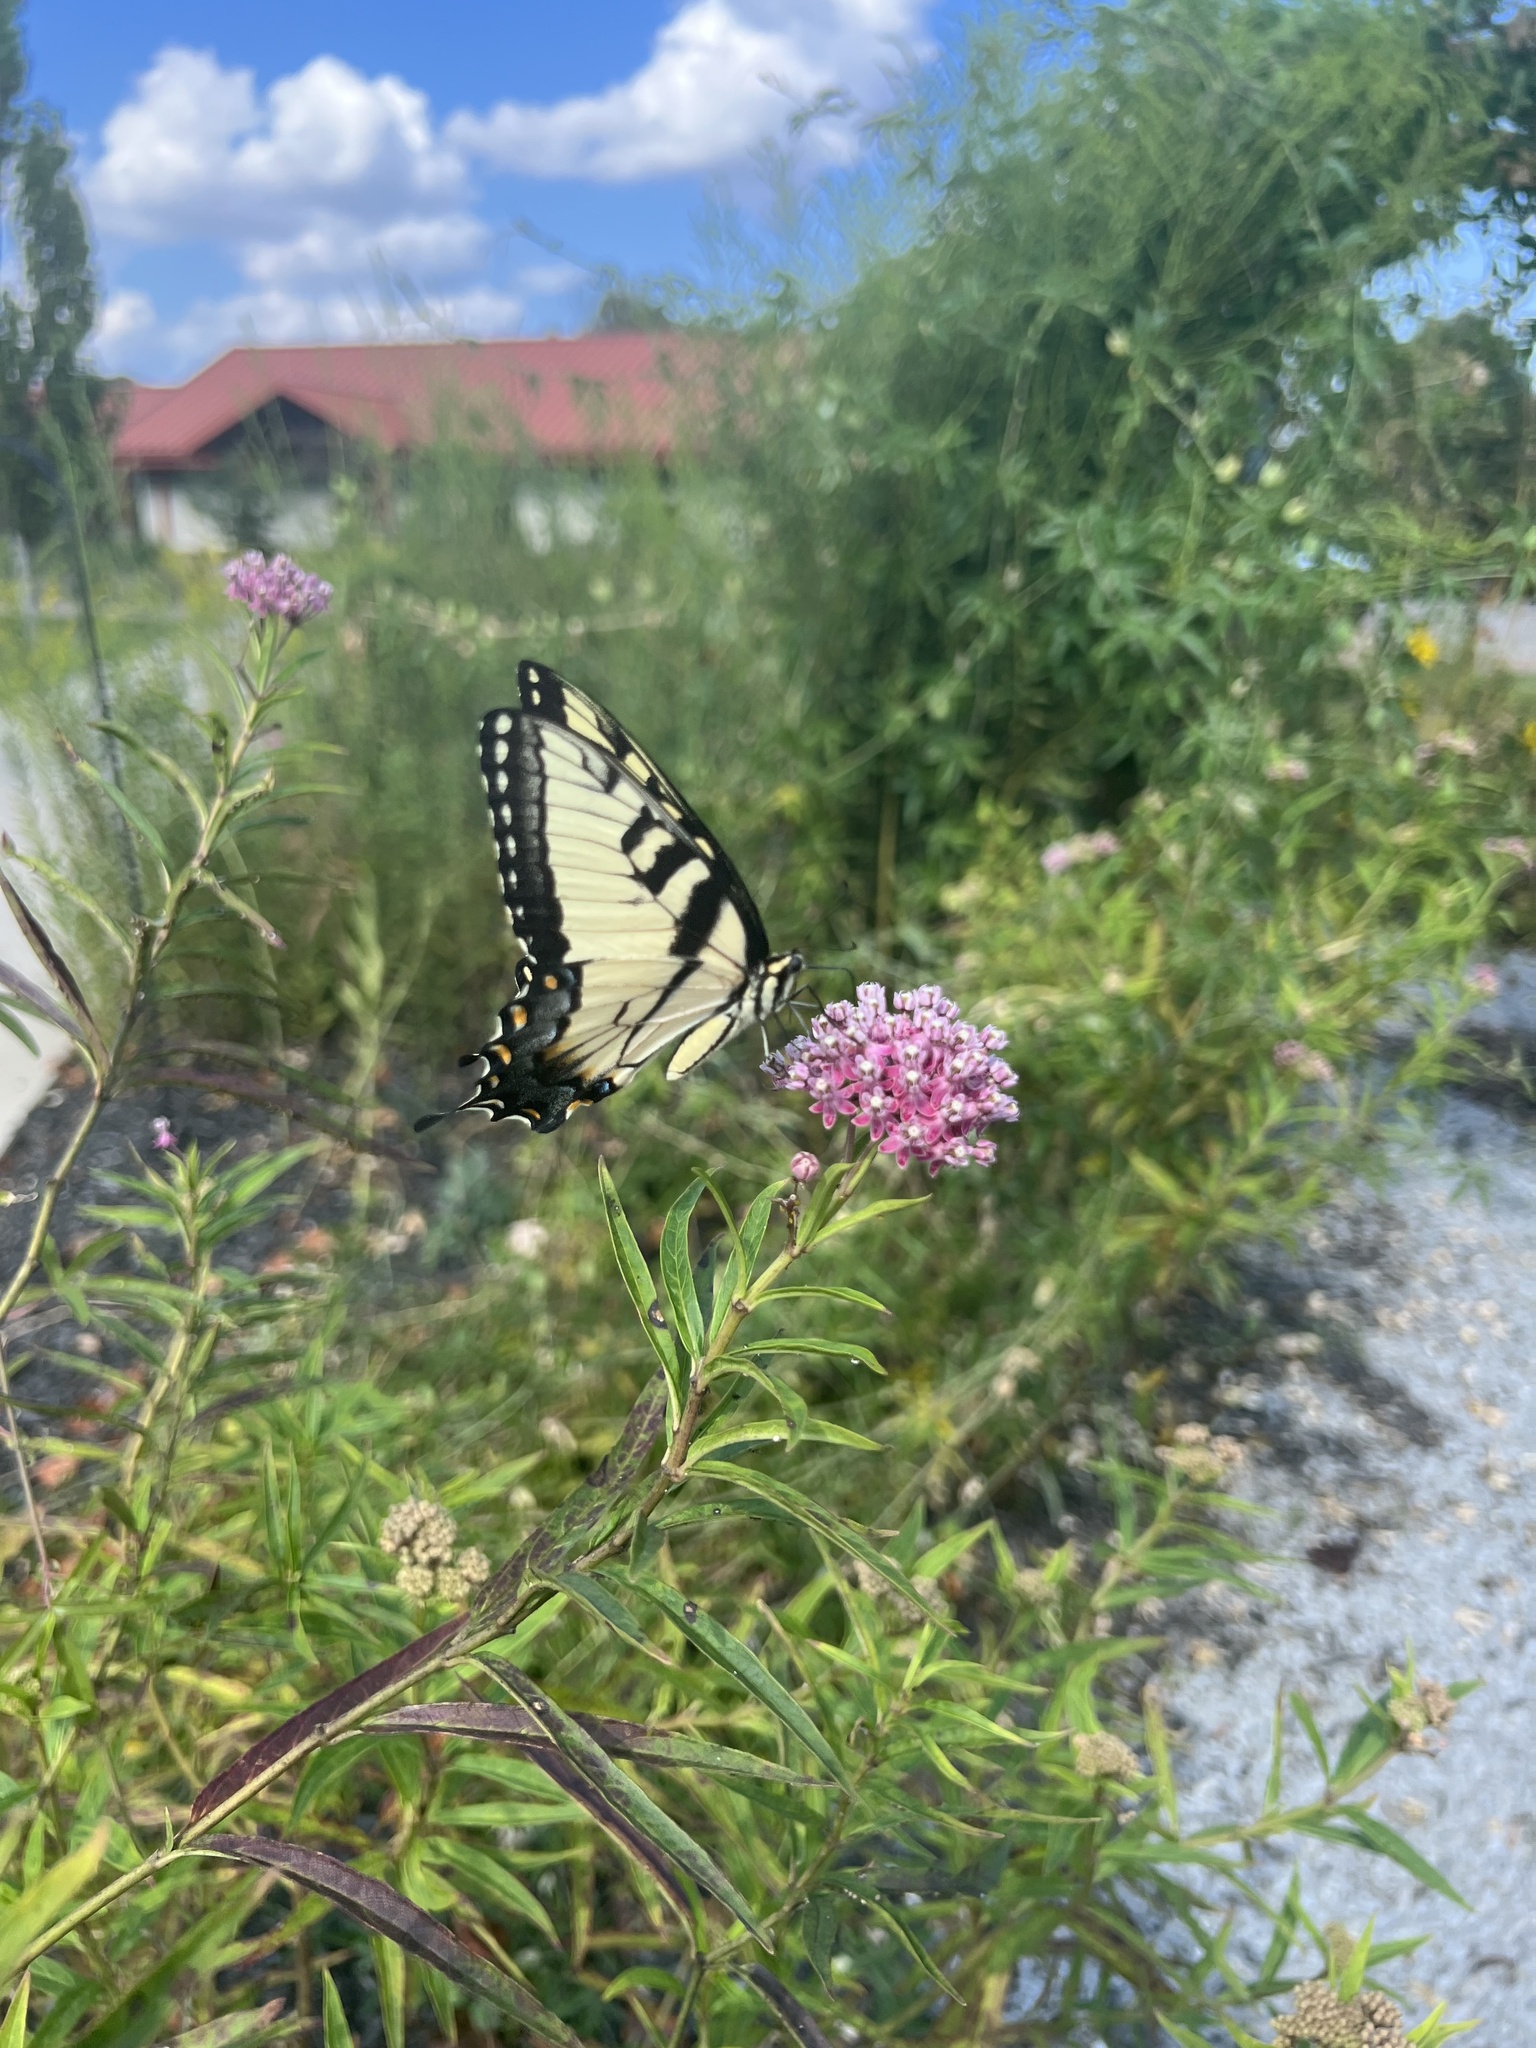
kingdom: Animalia
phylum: Arthropoda
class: Insecta
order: Lepidoptera
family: Papilionidae
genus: Papilio
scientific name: Papilio glaucus
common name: Tiger swallowtail
